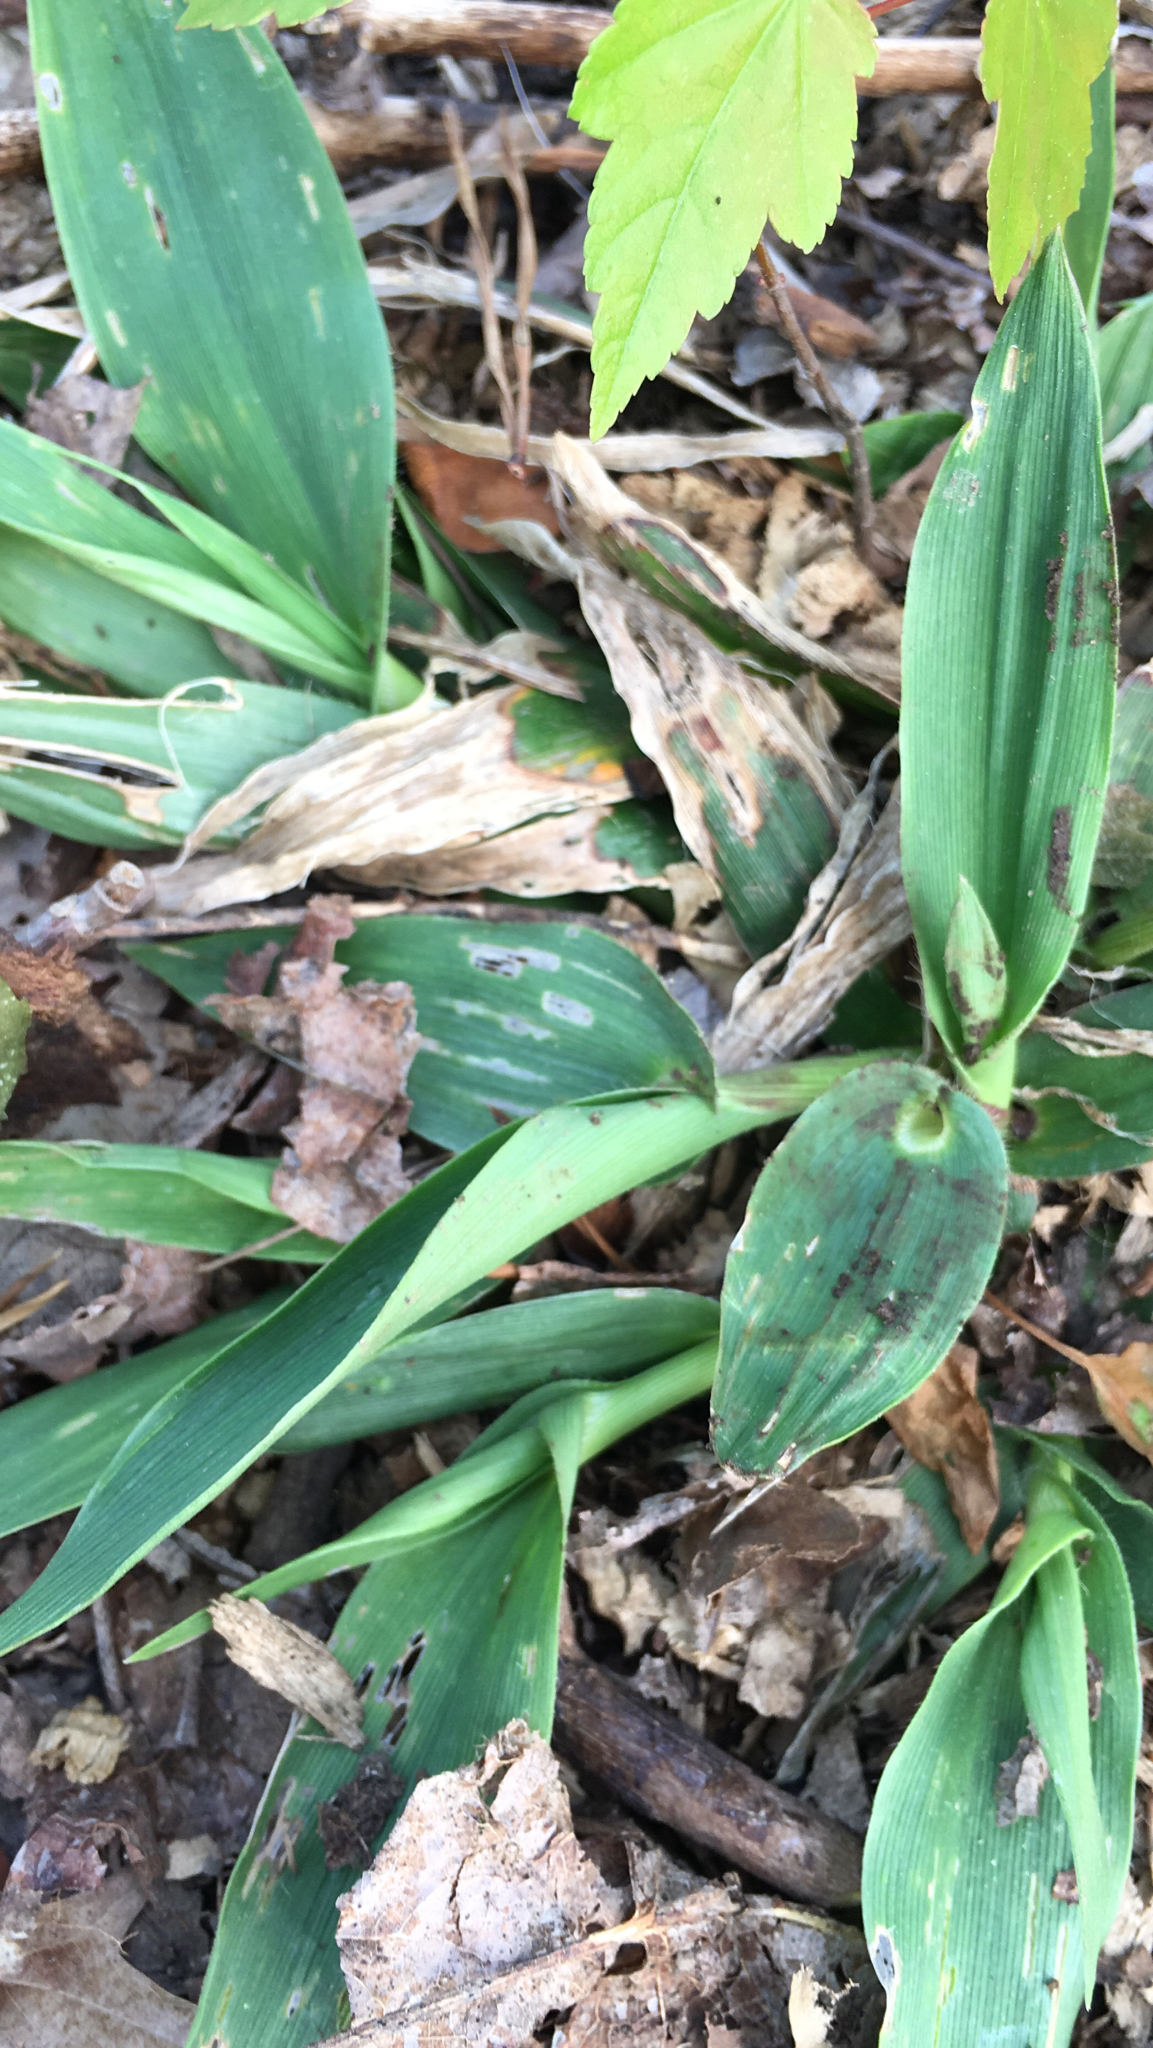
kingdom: Plantae
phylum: Tracheophyta
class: Liliopsida
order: Poales
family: Poaceae
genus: Dichanthelium
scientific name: Dichanthelium clandestinum
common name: Deer-tongue grass
